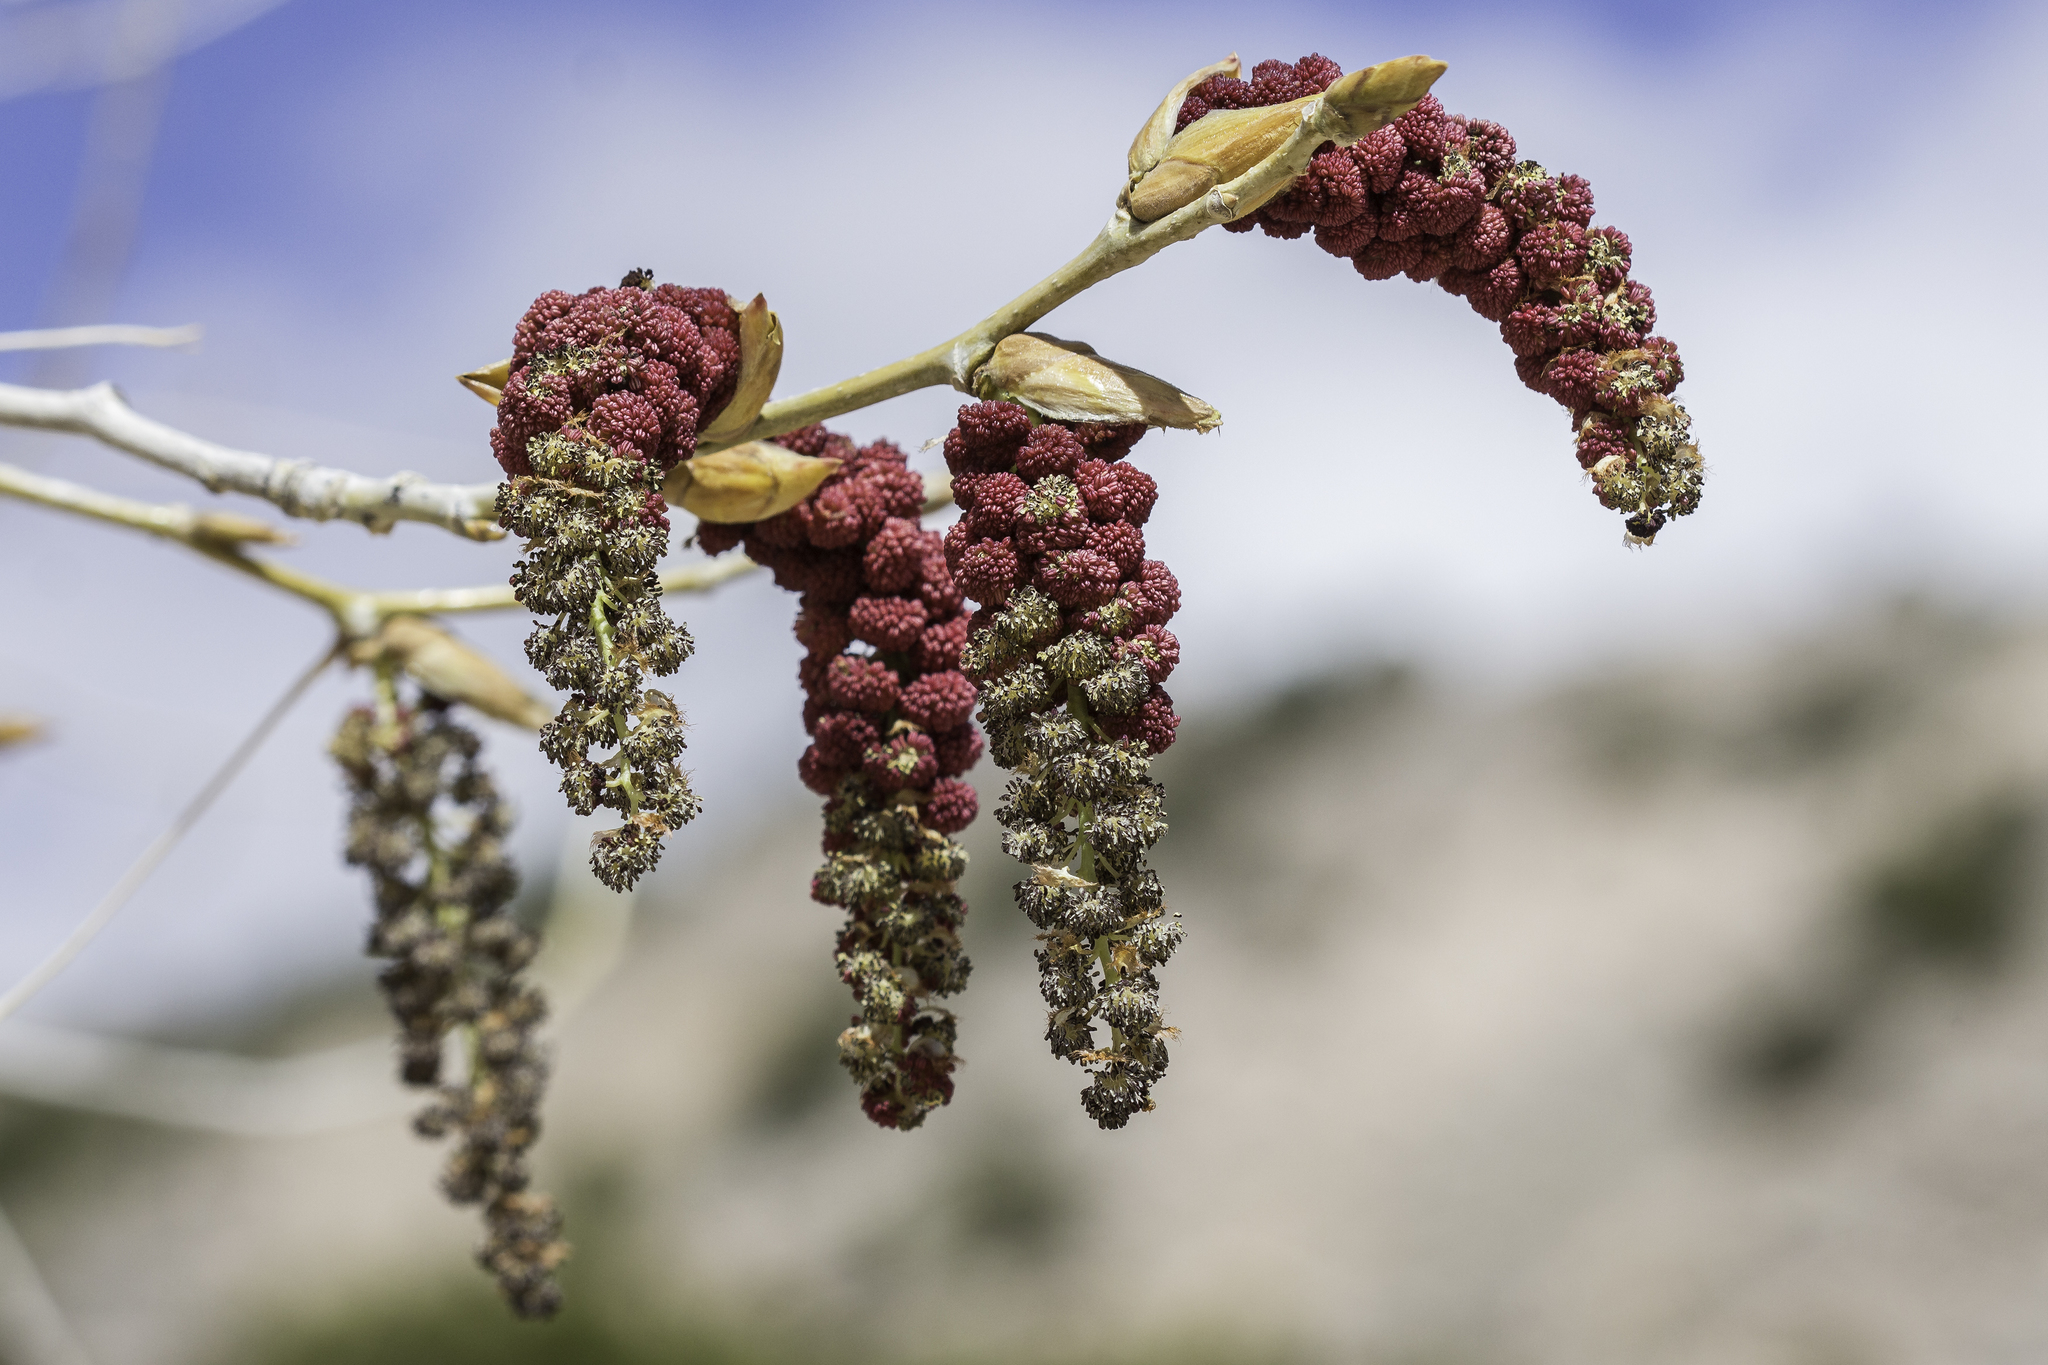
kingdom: Plantae
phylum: Tracheophyta
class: Magnoliopsida
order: Malpighiales
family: Salicaceae
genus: Populus
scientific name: Populus deltoides
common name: Eastern cottonwood
